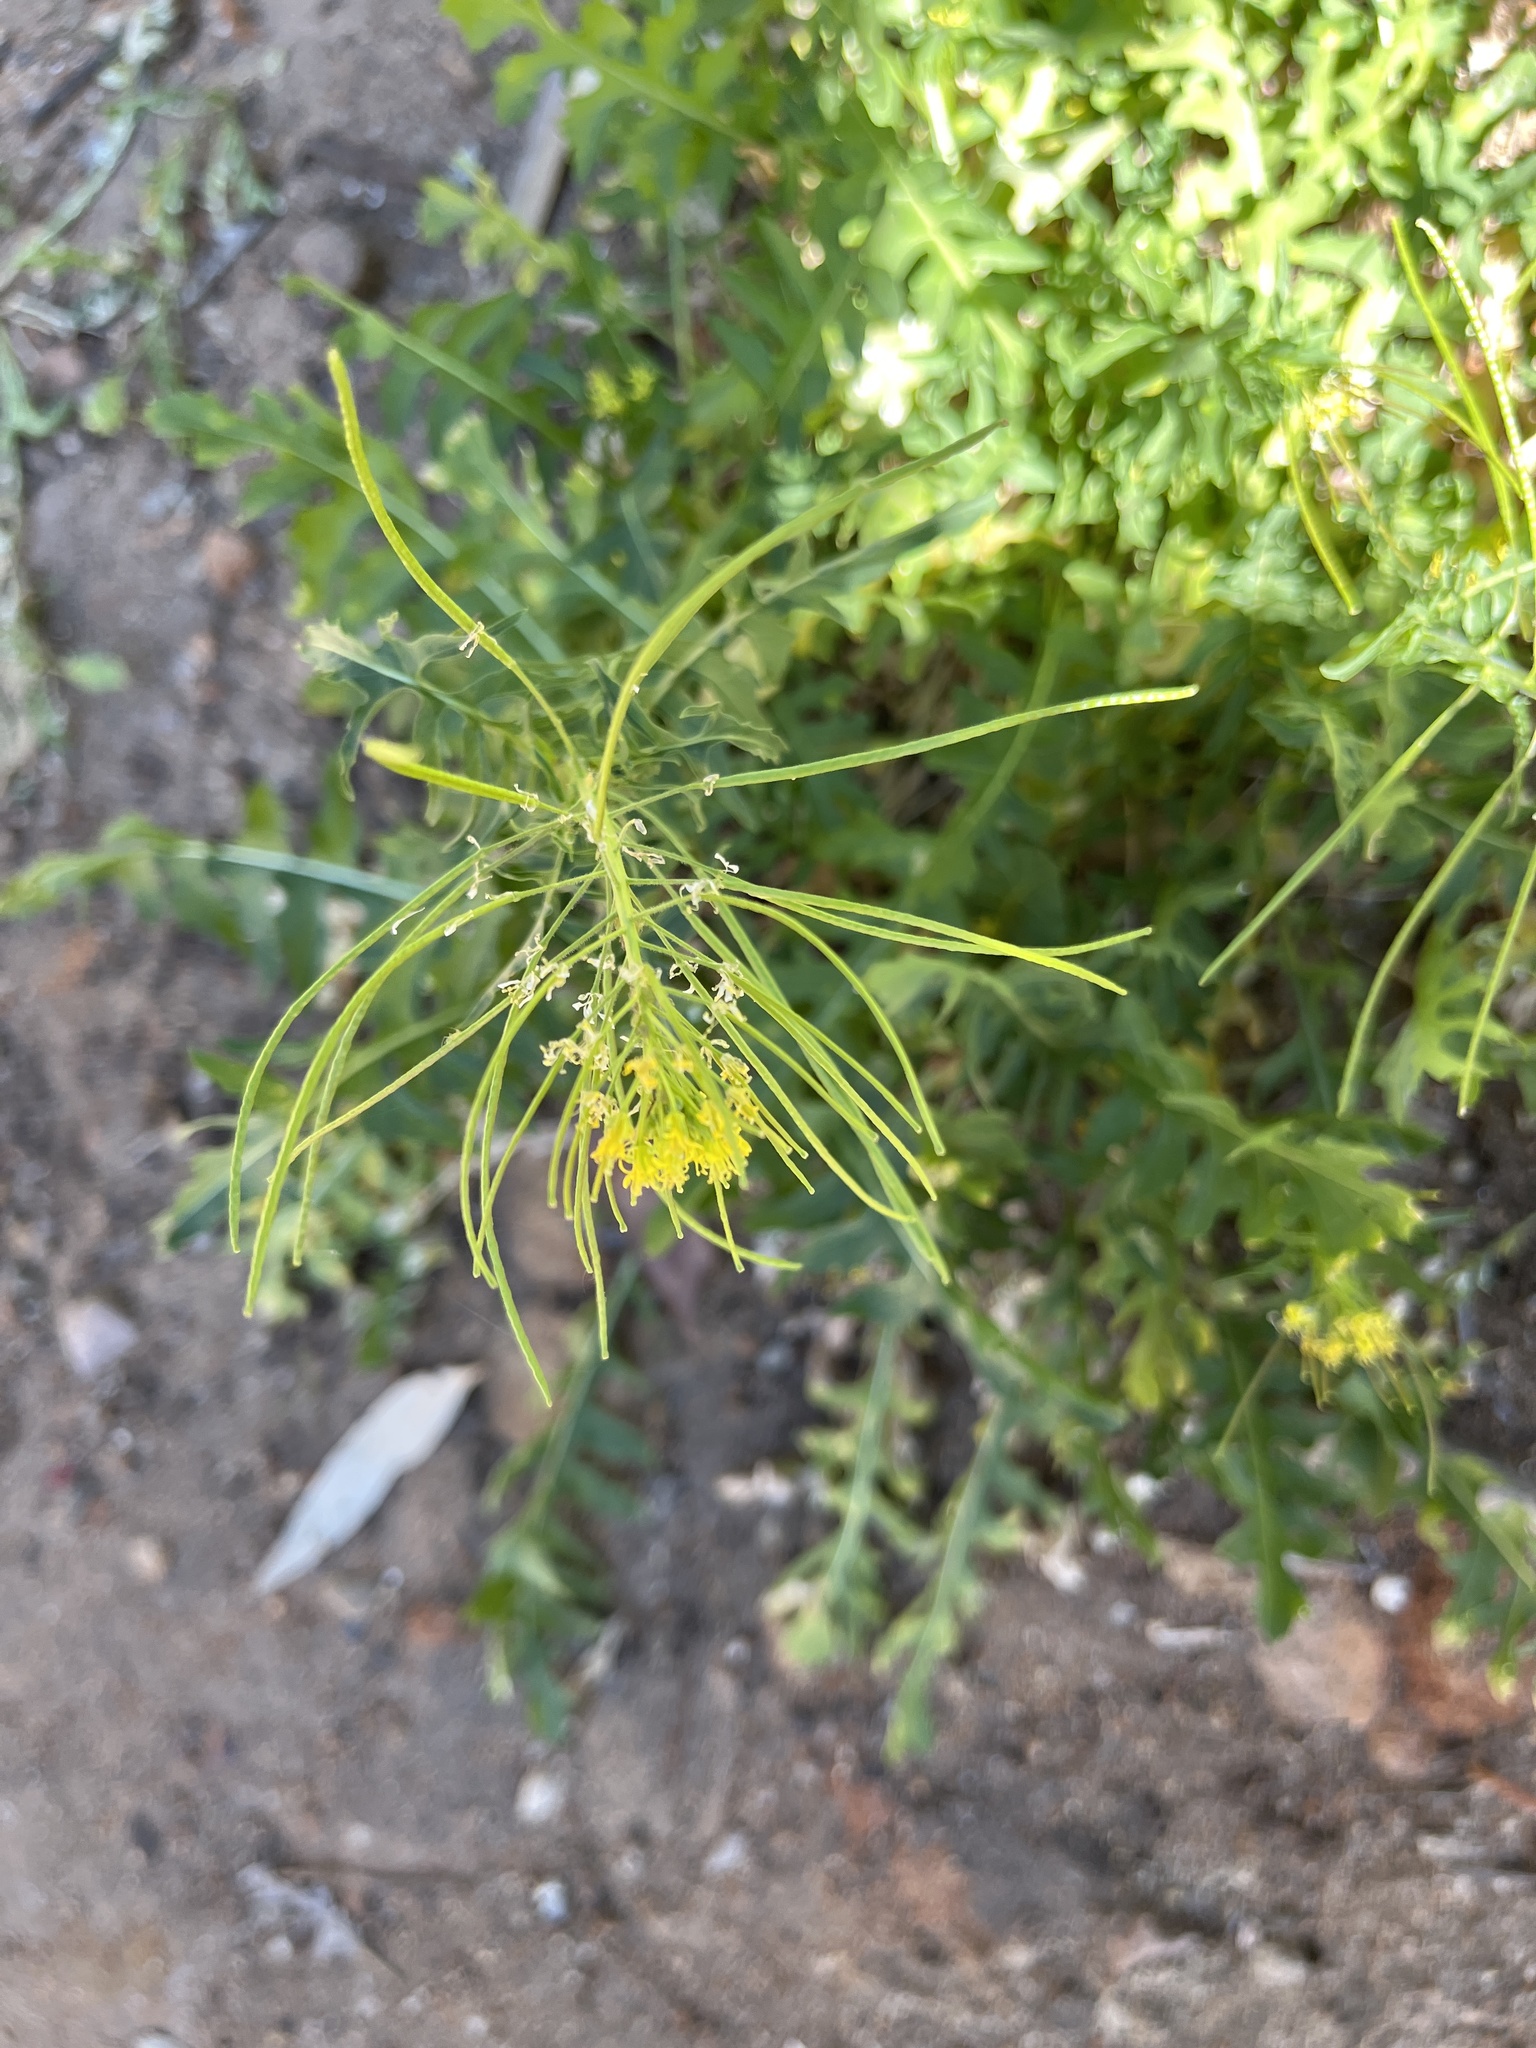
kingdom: Plantae
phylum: Tracheophyta
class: Magnoliopsida
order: Brassicales
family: Brassicaceae
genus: Sisymbrium
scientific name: Sisymbrium irio
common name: London rocket
